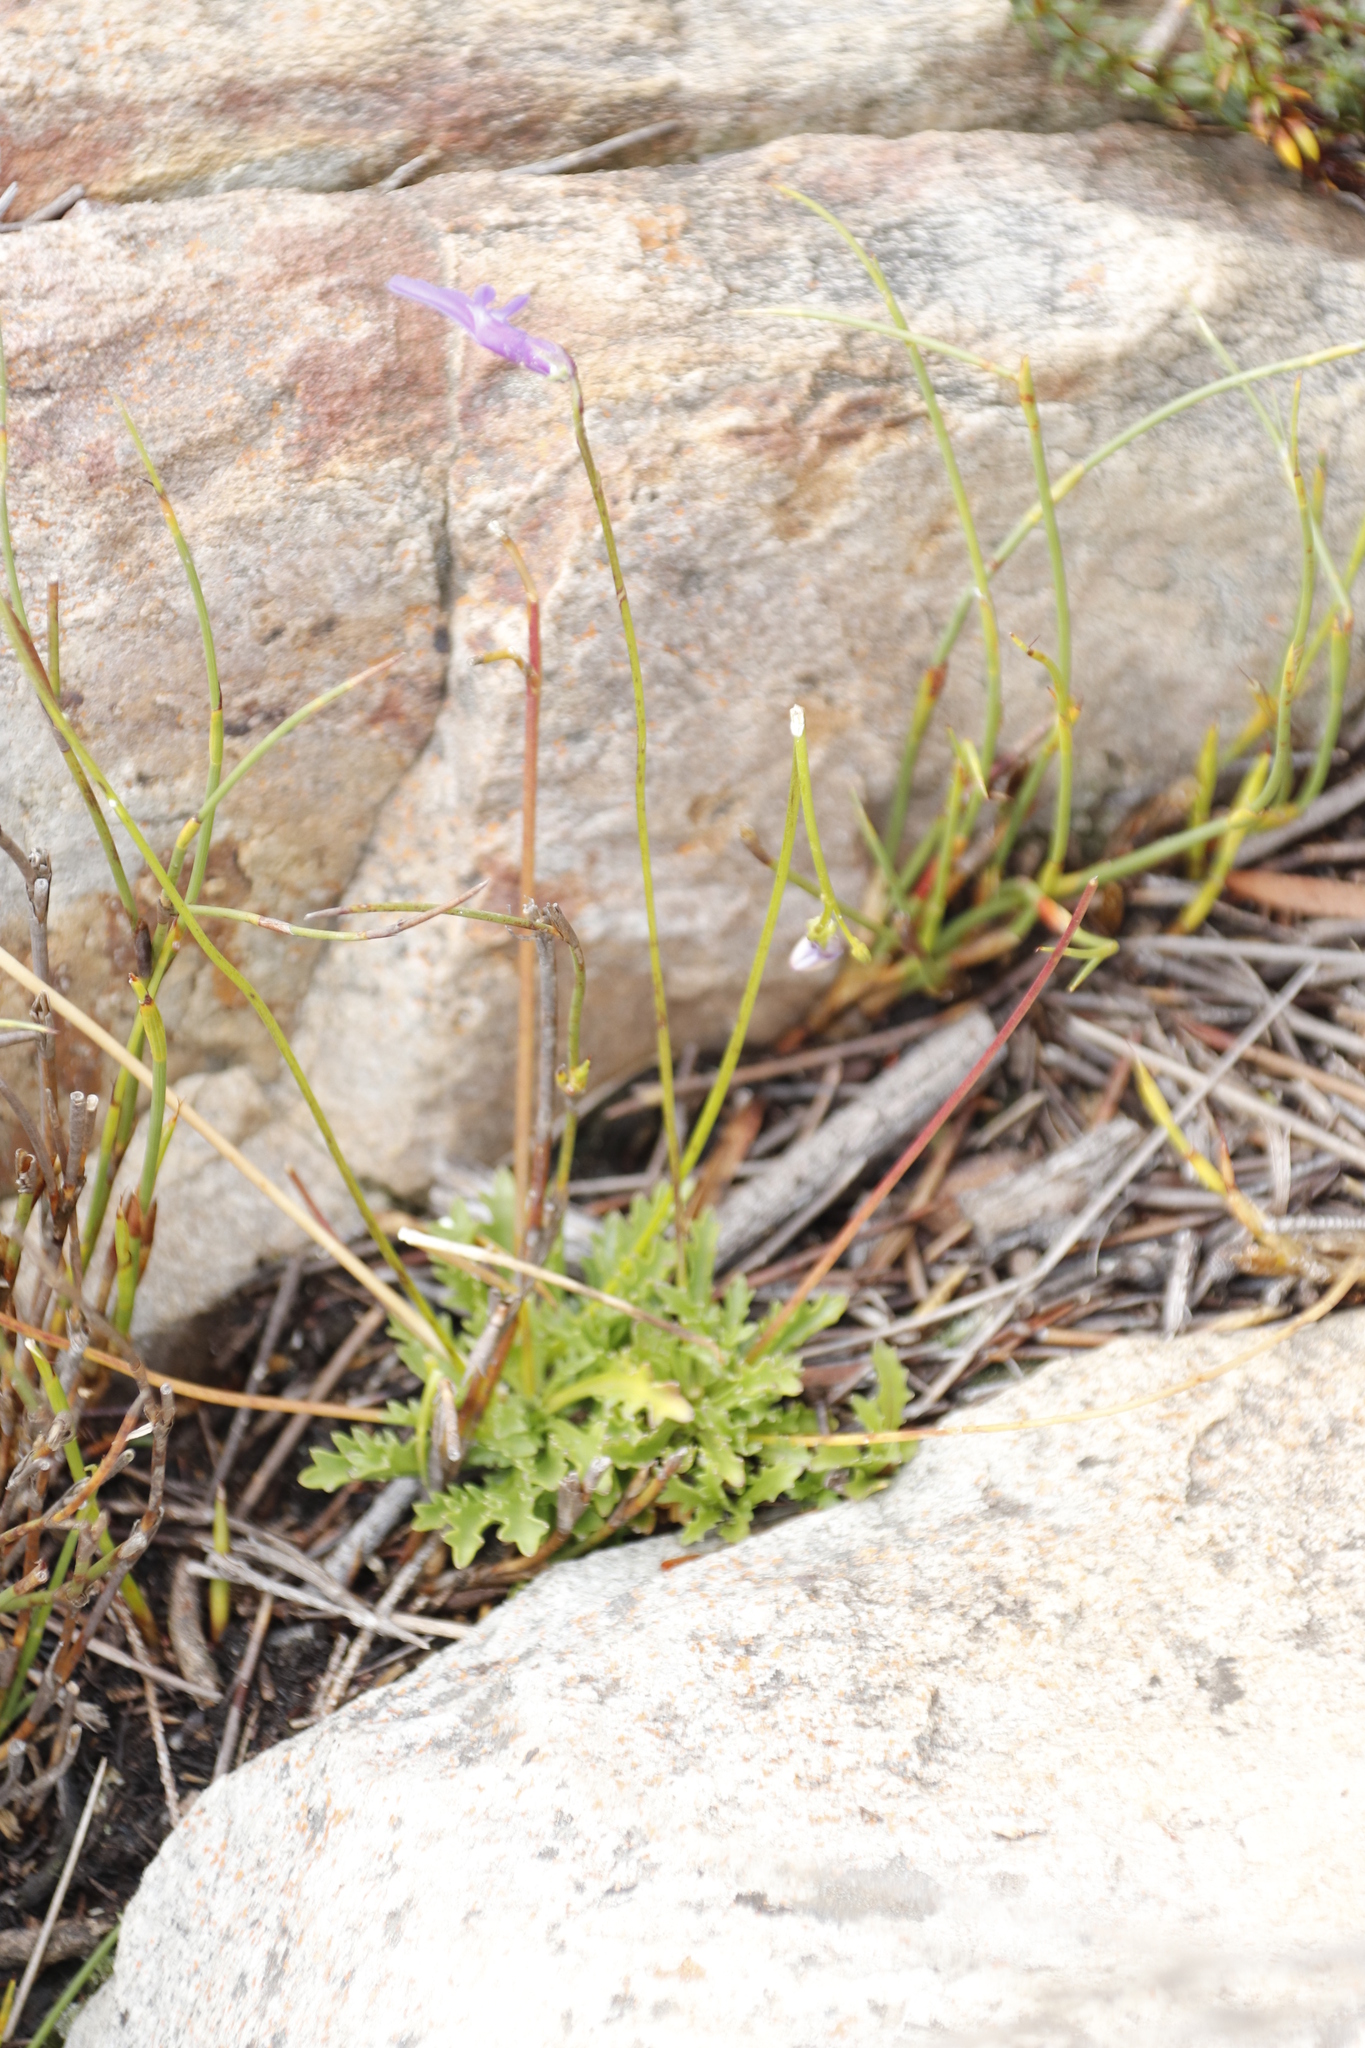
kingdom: Plantae
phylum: Tracheophyta
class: Magnoliopsida
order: Asterales
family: Campanulaceae
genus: Lobelia
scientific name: Lobelia coronopifolia
